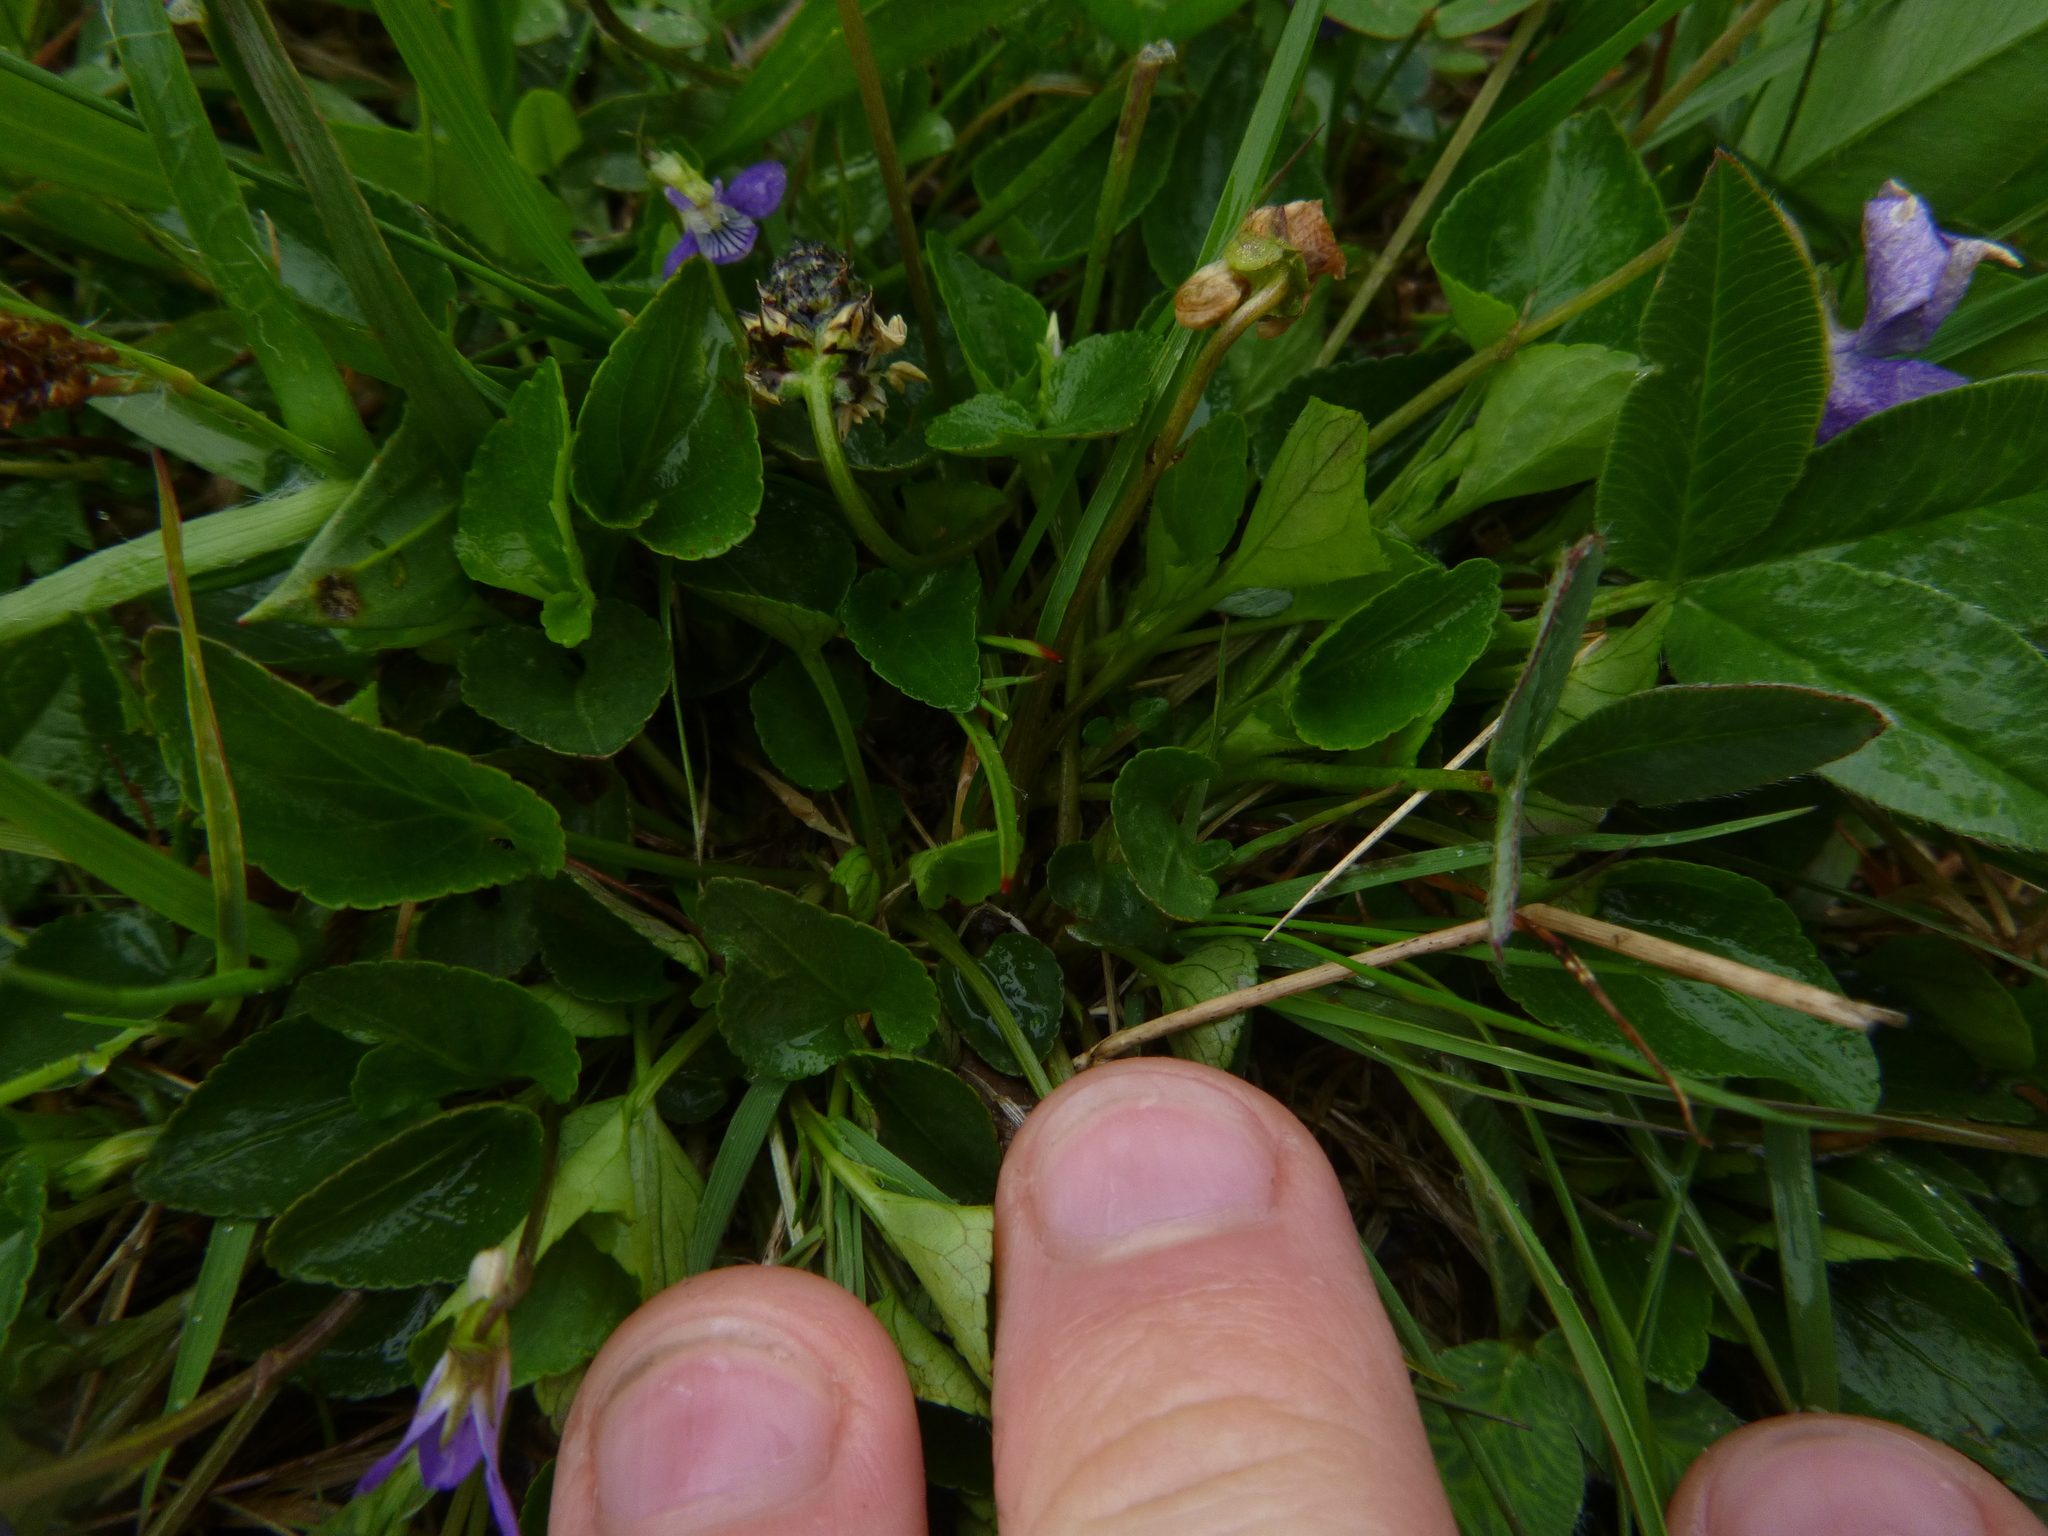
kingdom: Plantae
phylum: Tracheophyta
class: Magnoliopsida
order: Malpighiales
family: Violaceae
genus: Viola
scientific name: Viola riviniana
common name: Common dog-violet
